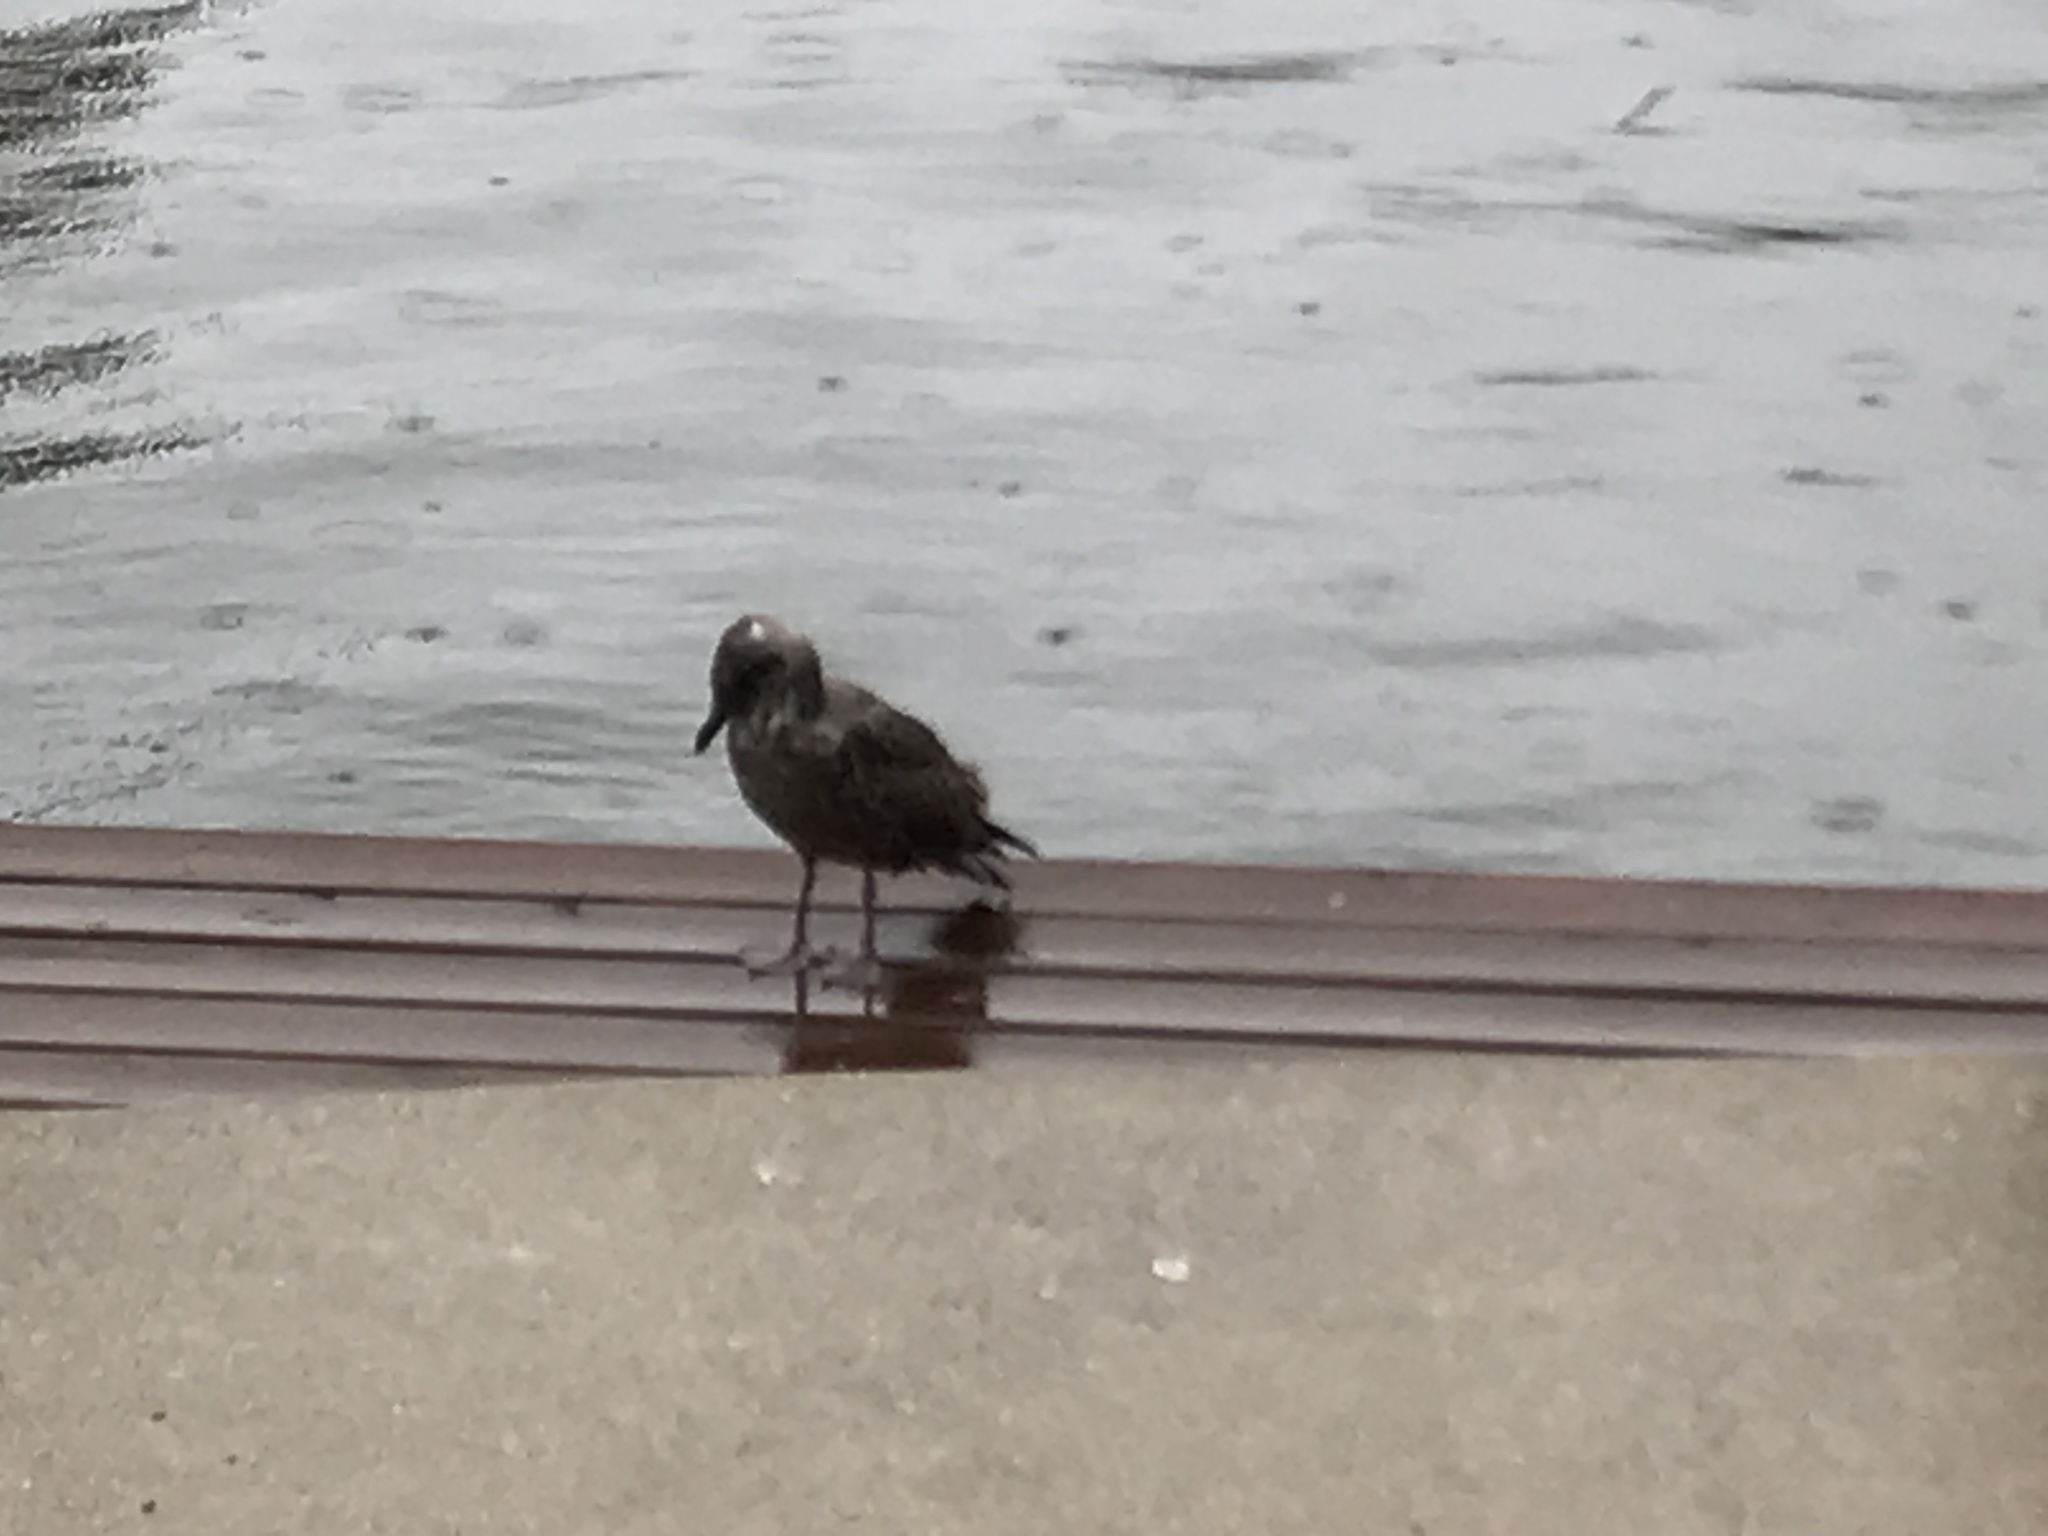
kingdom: Animalia
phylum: Chordata
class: Aves
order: Charadriiformes
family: Laridae
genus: Larus
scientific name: Larus argentatus
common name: Herring gull
